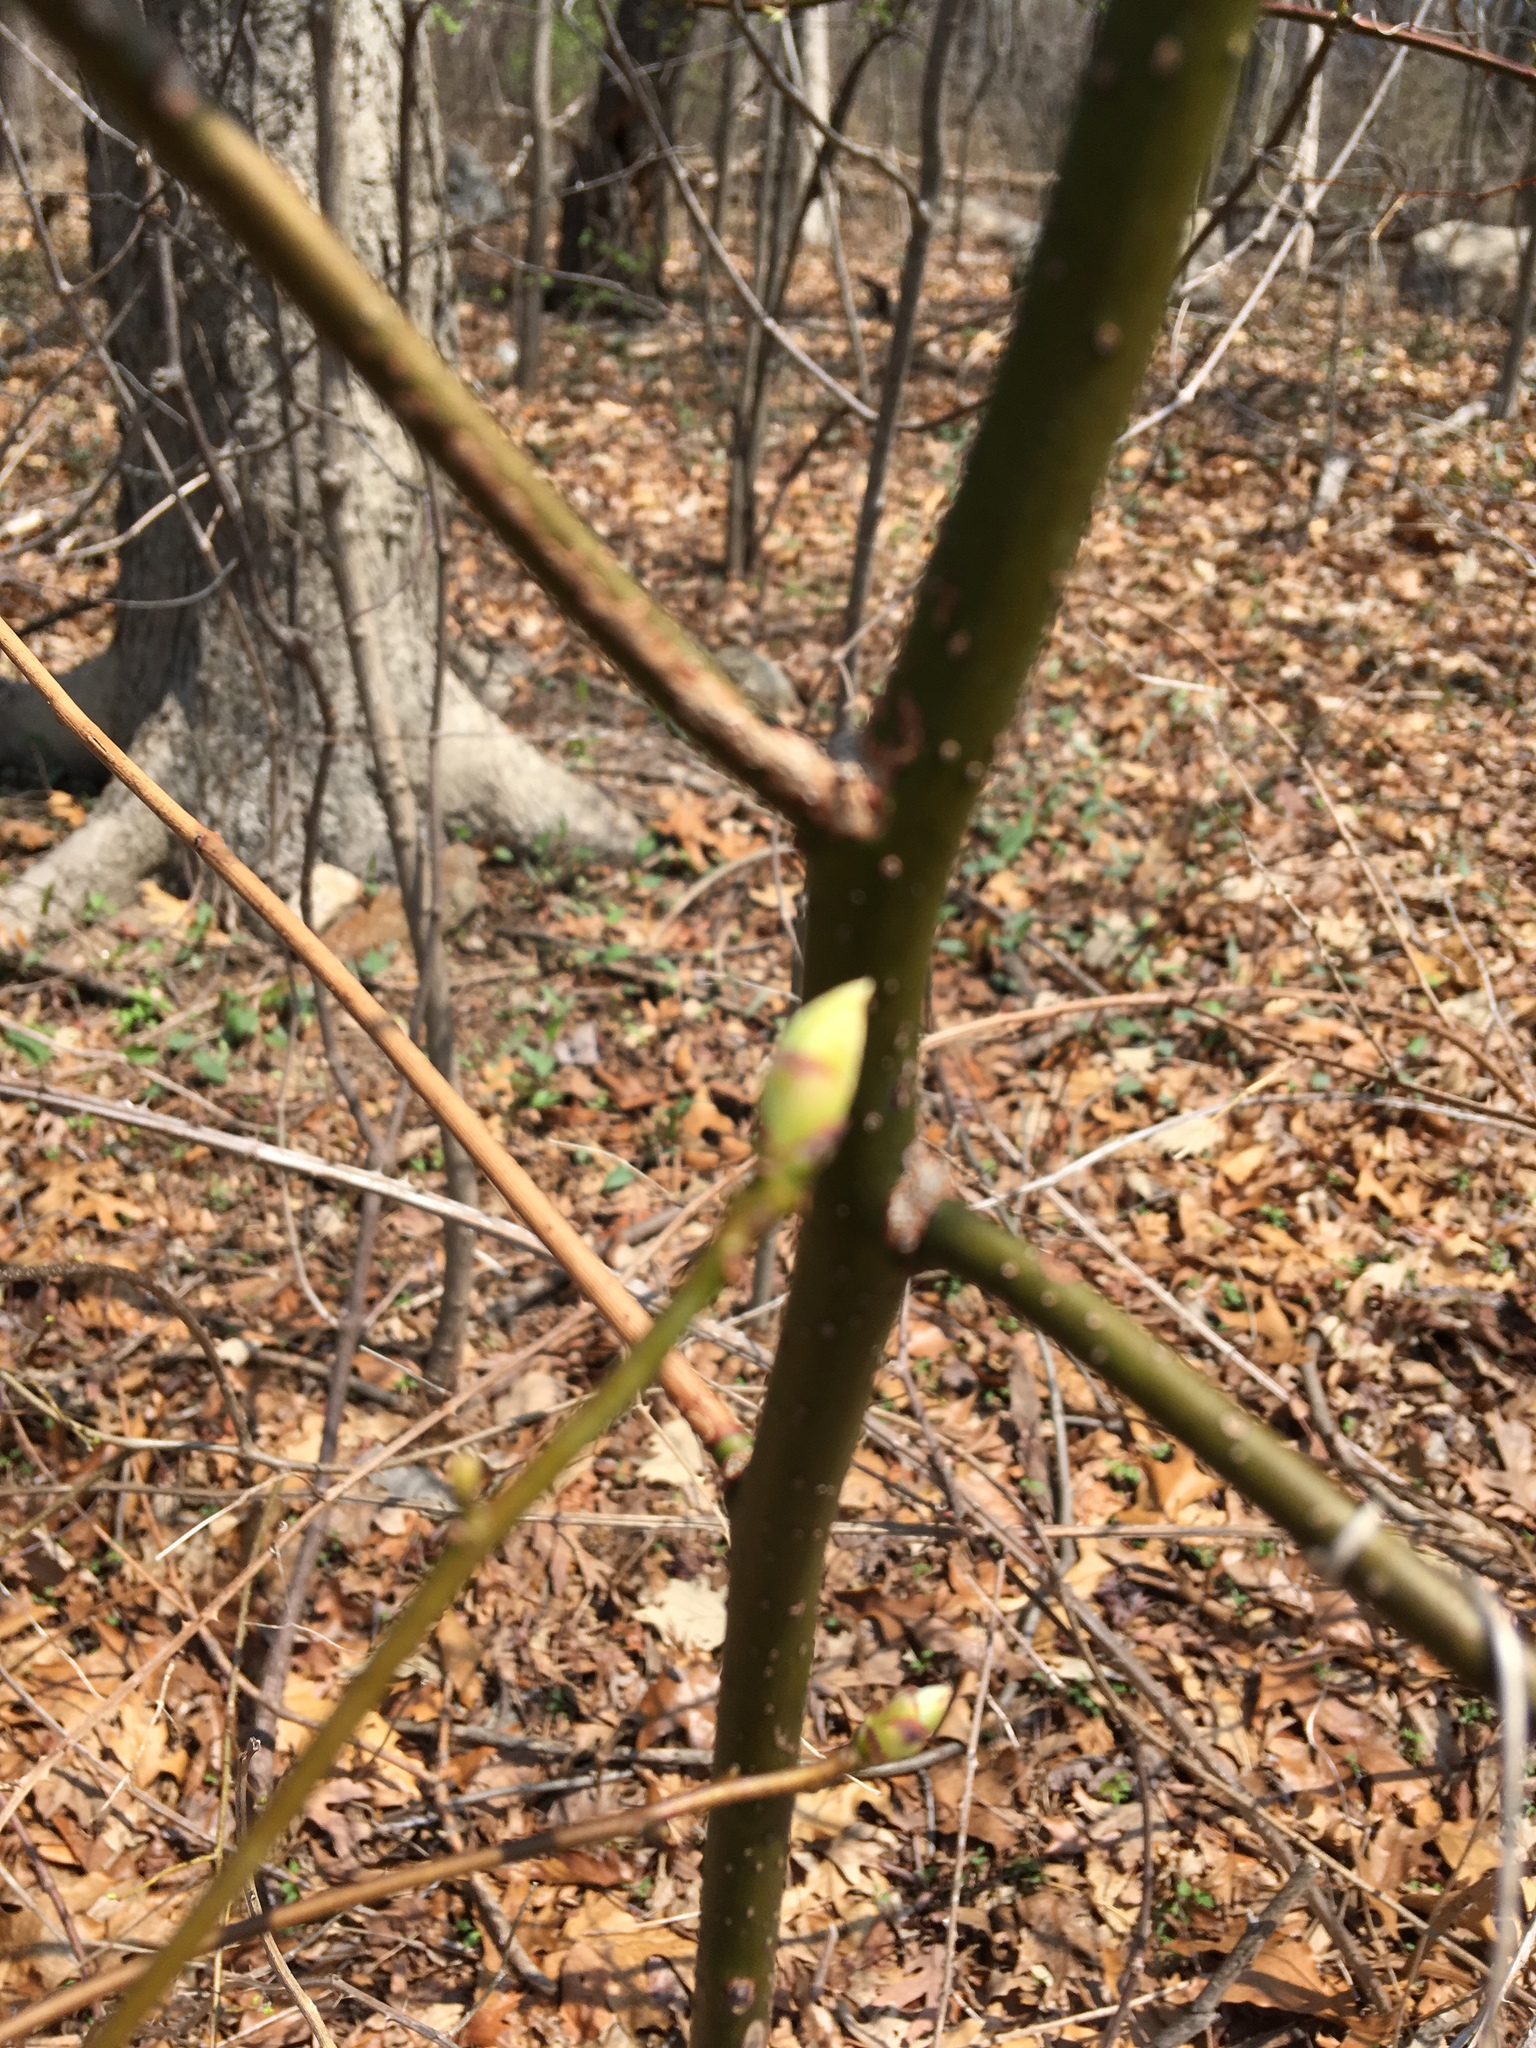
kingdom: Plantae
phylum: Tracheophyta
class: Magnoliopsida
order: Laurales
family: Lauraceae
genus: Sassafras
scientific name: Sassafras albidum
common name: Sassafras
